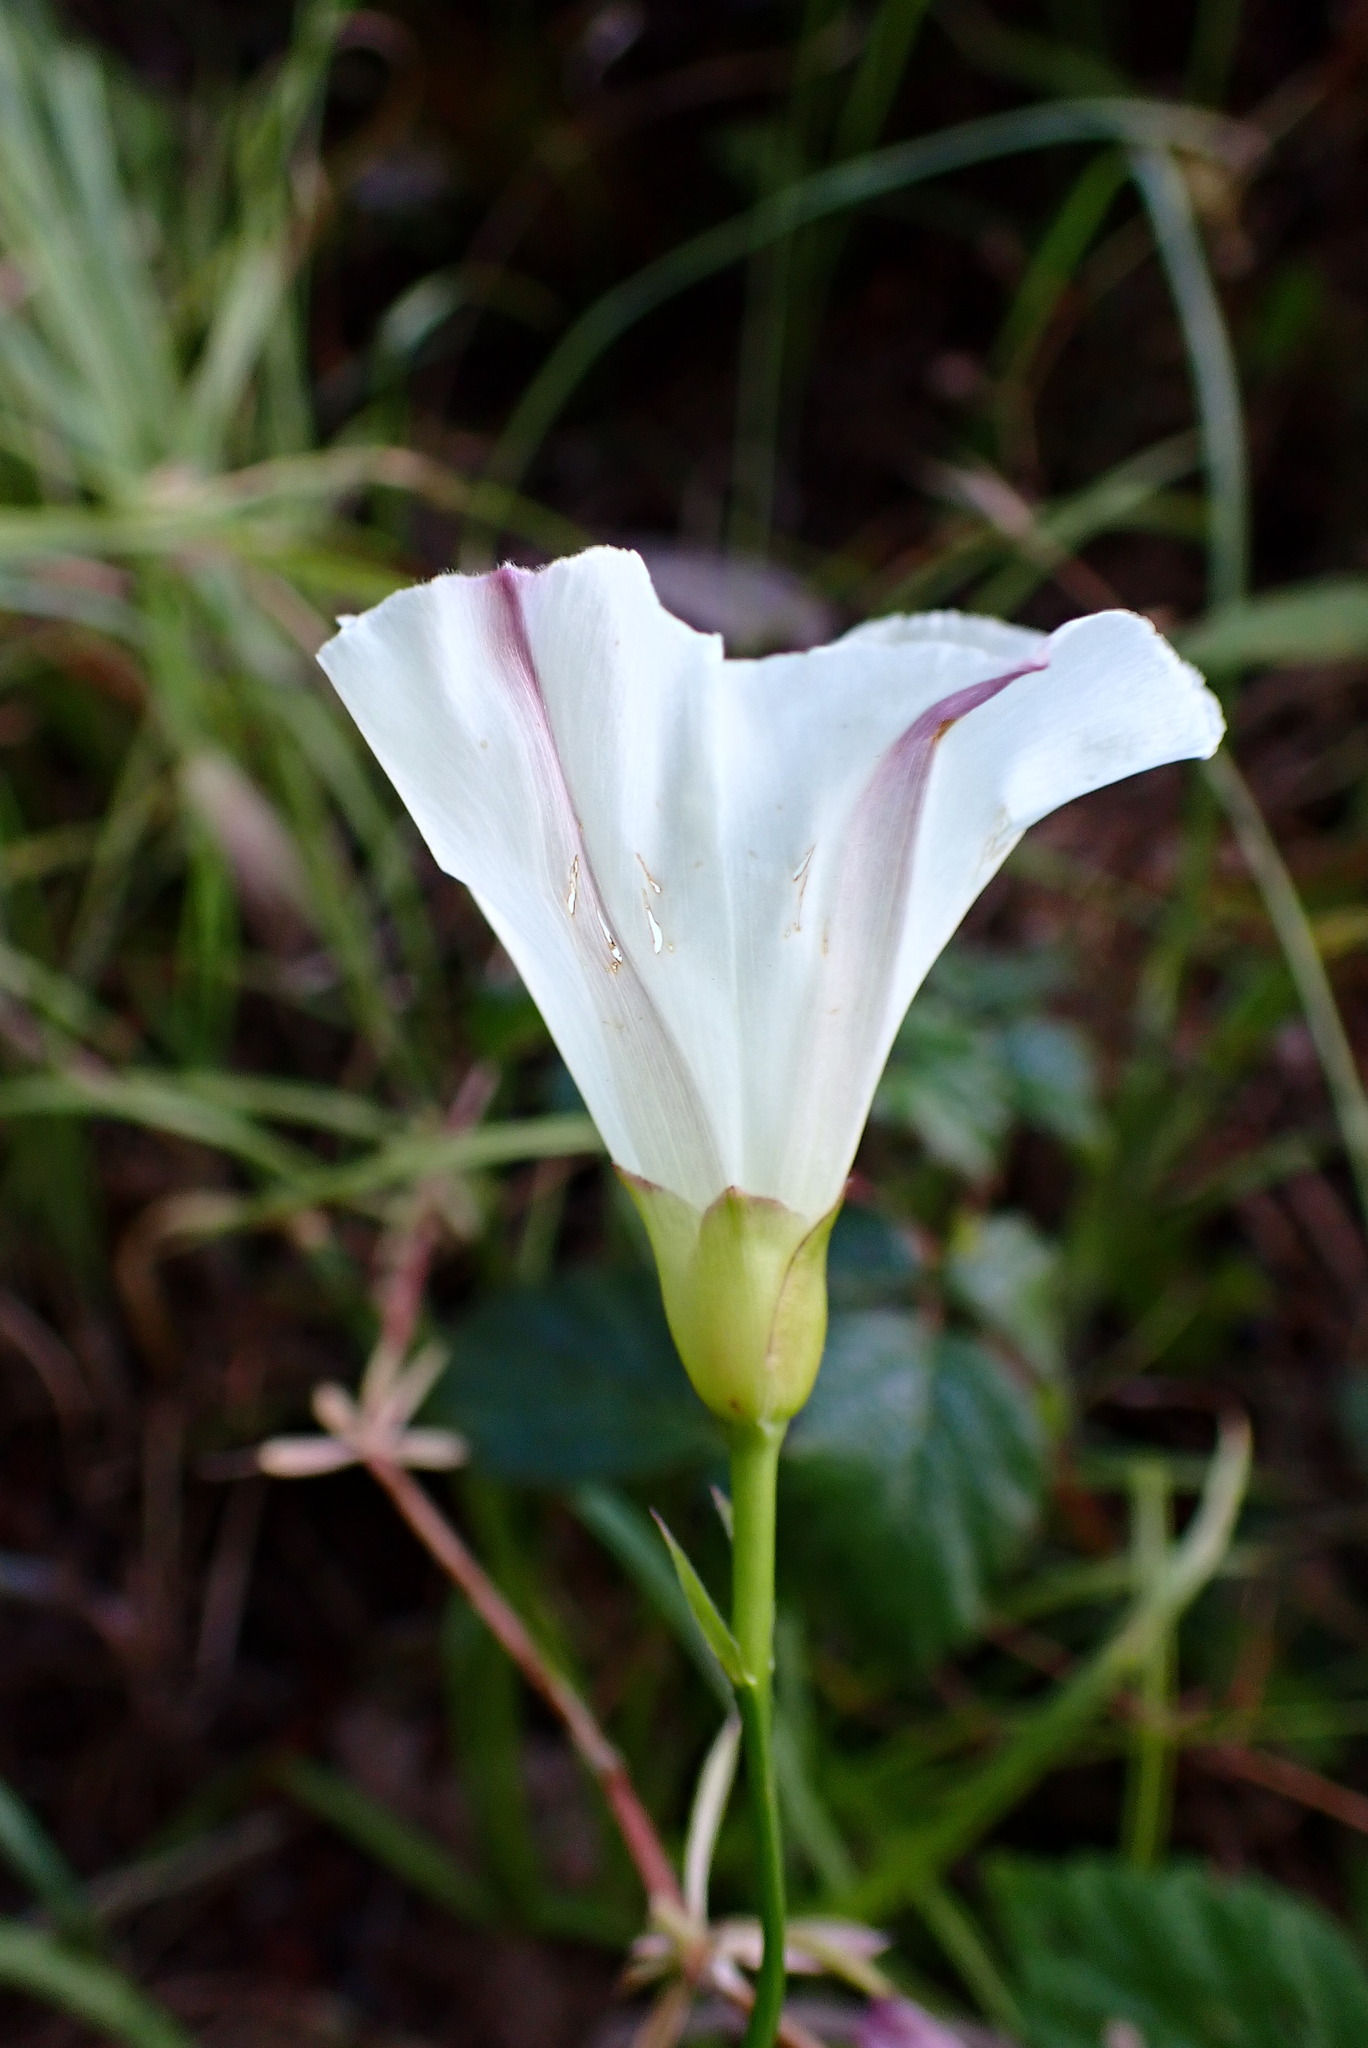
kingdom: Plantae
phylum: Tracheophyta
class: Magnoliopsida
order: Solanales
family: Convolvulaceae
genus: Calystegia
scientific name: Calystegia purpurata
